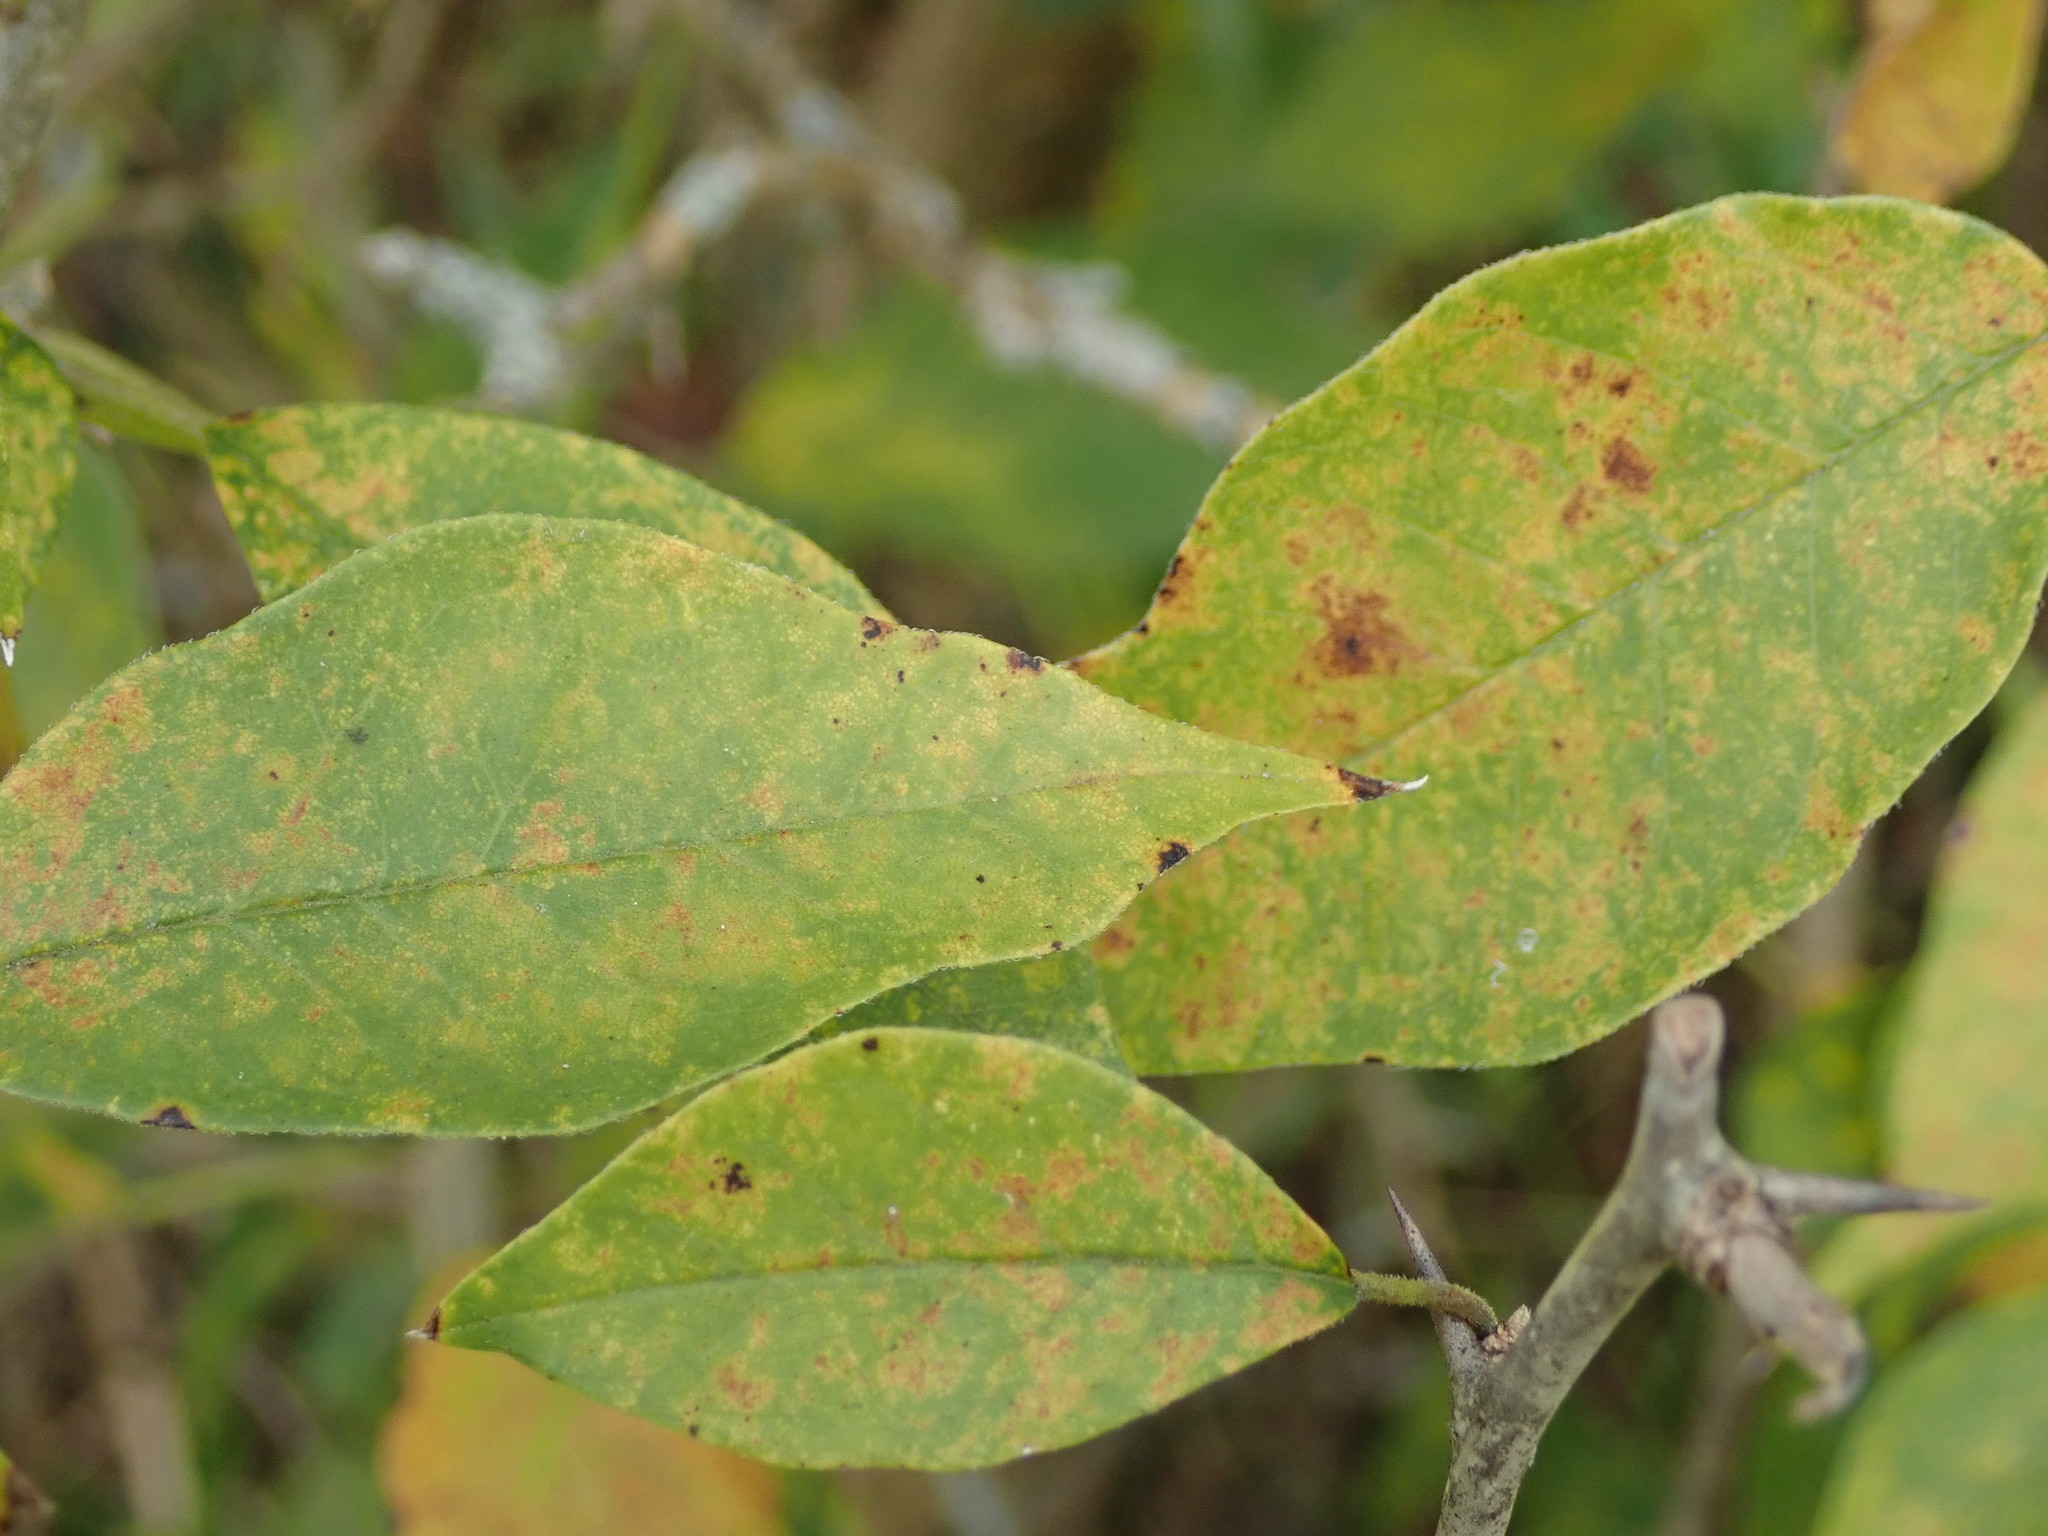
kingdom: Plantae
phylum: Tracheophyta
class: Magnoliopsida
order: Rosales
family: Moraceae
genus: Maclura
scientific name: Maclura pomifera
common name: Osage-orange
